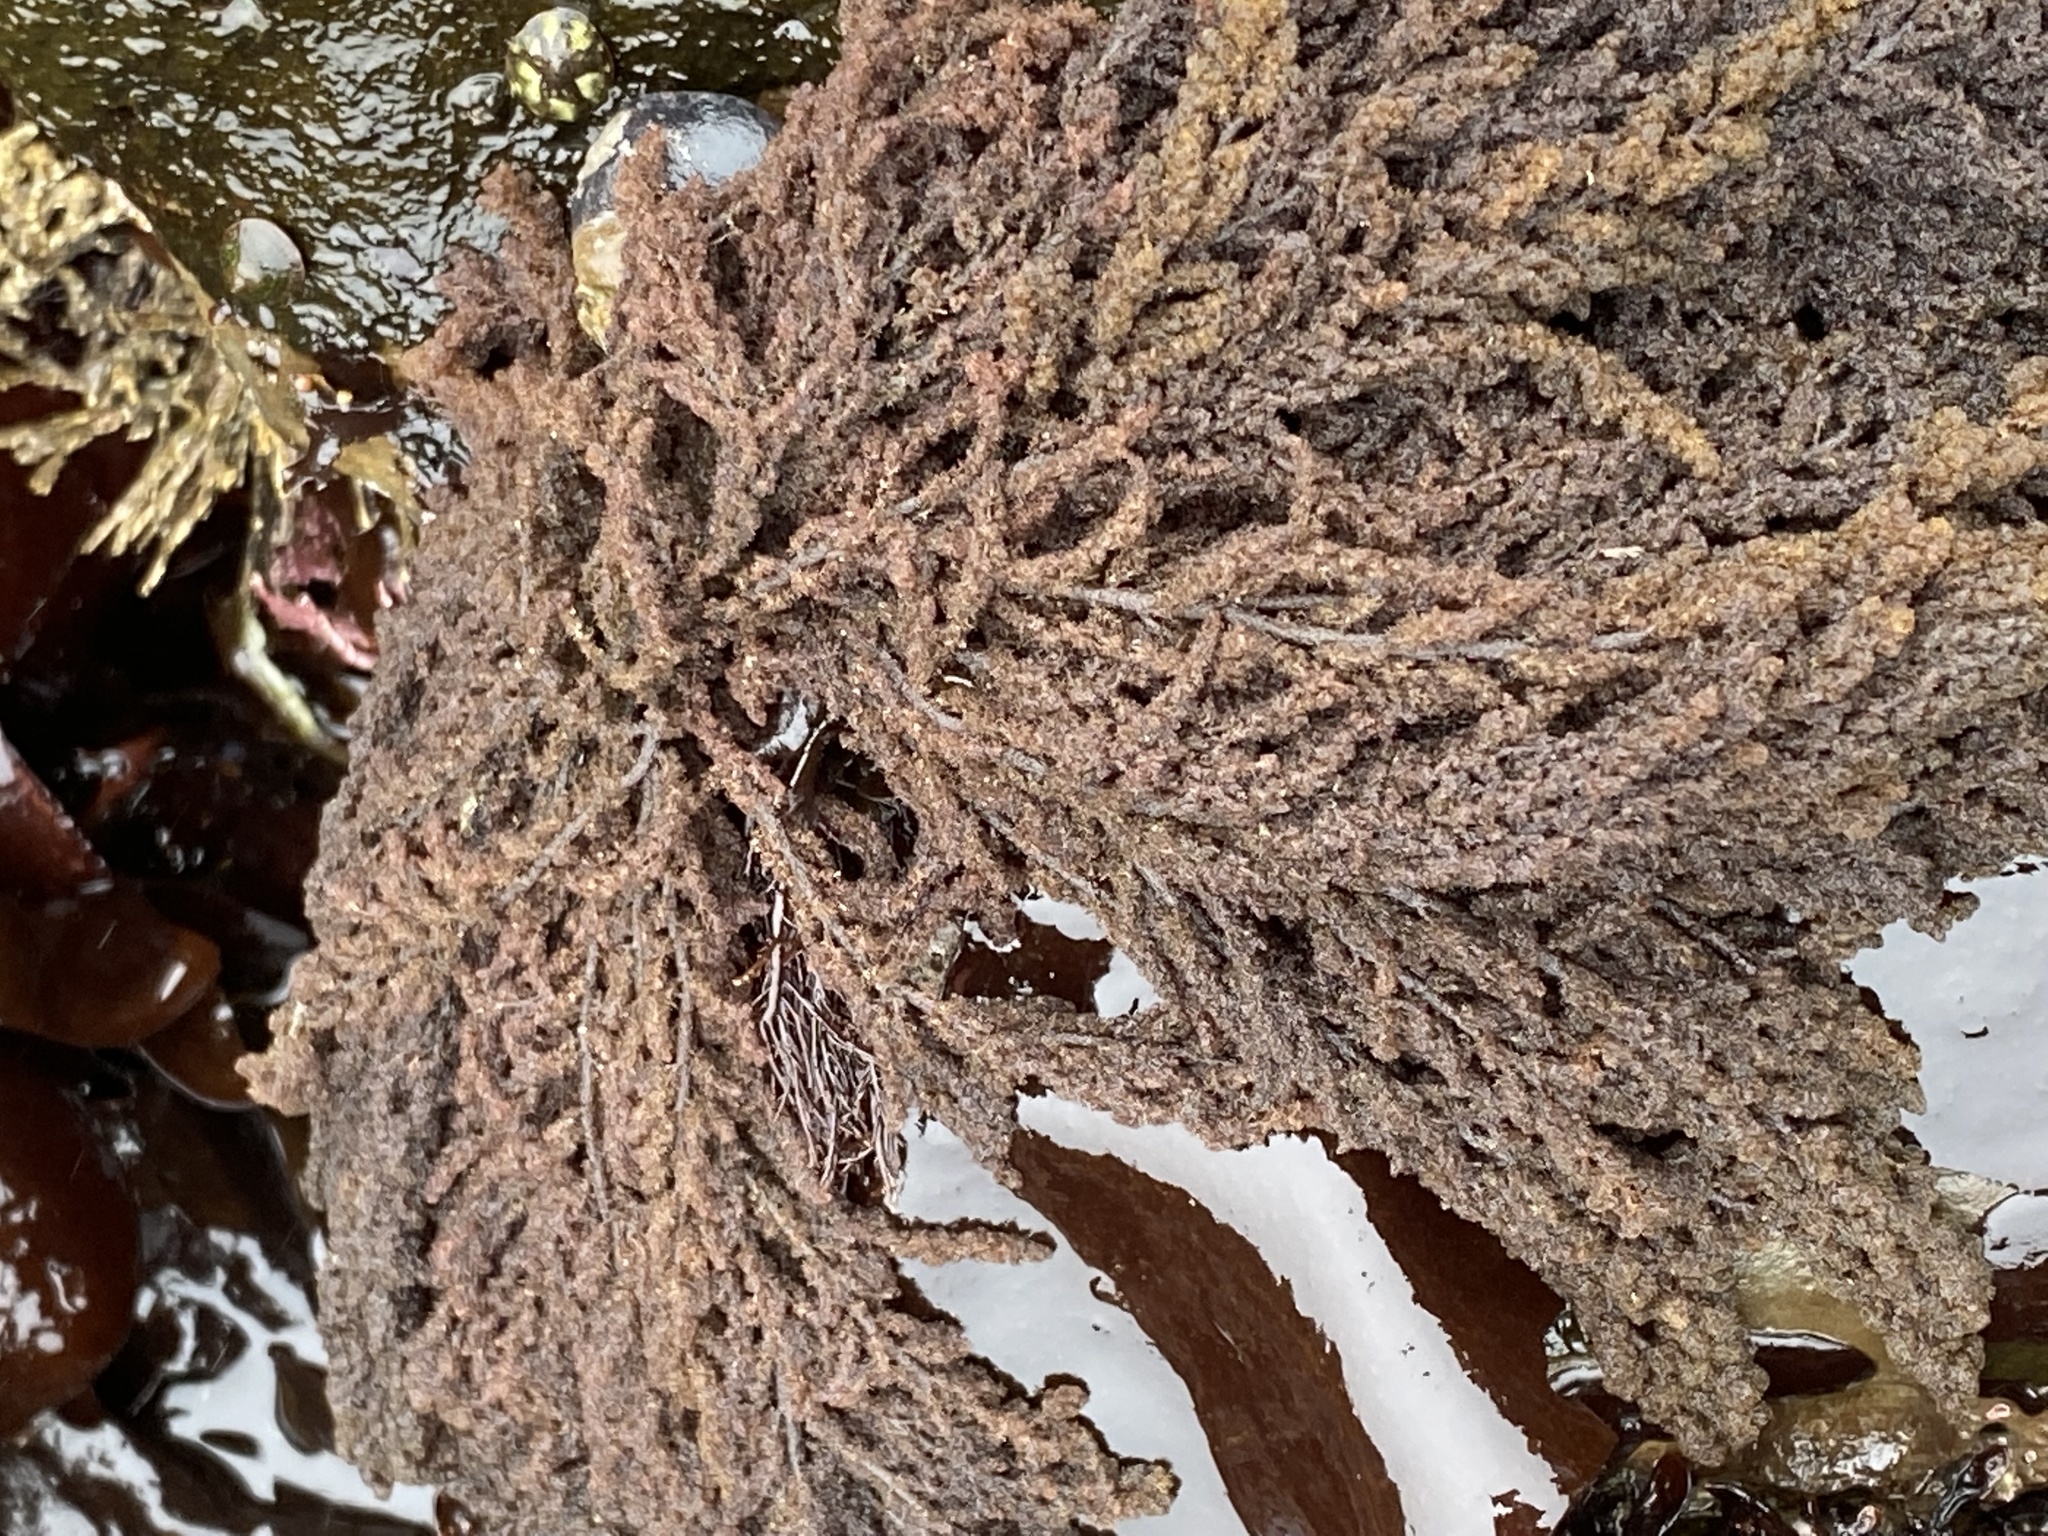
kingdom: Plantae
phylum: Rhodophyta
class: Florideophyceae
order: Ceramiales
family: Callithamniaceae
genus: Callithamnion
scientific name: Callithamnion pikeanum
